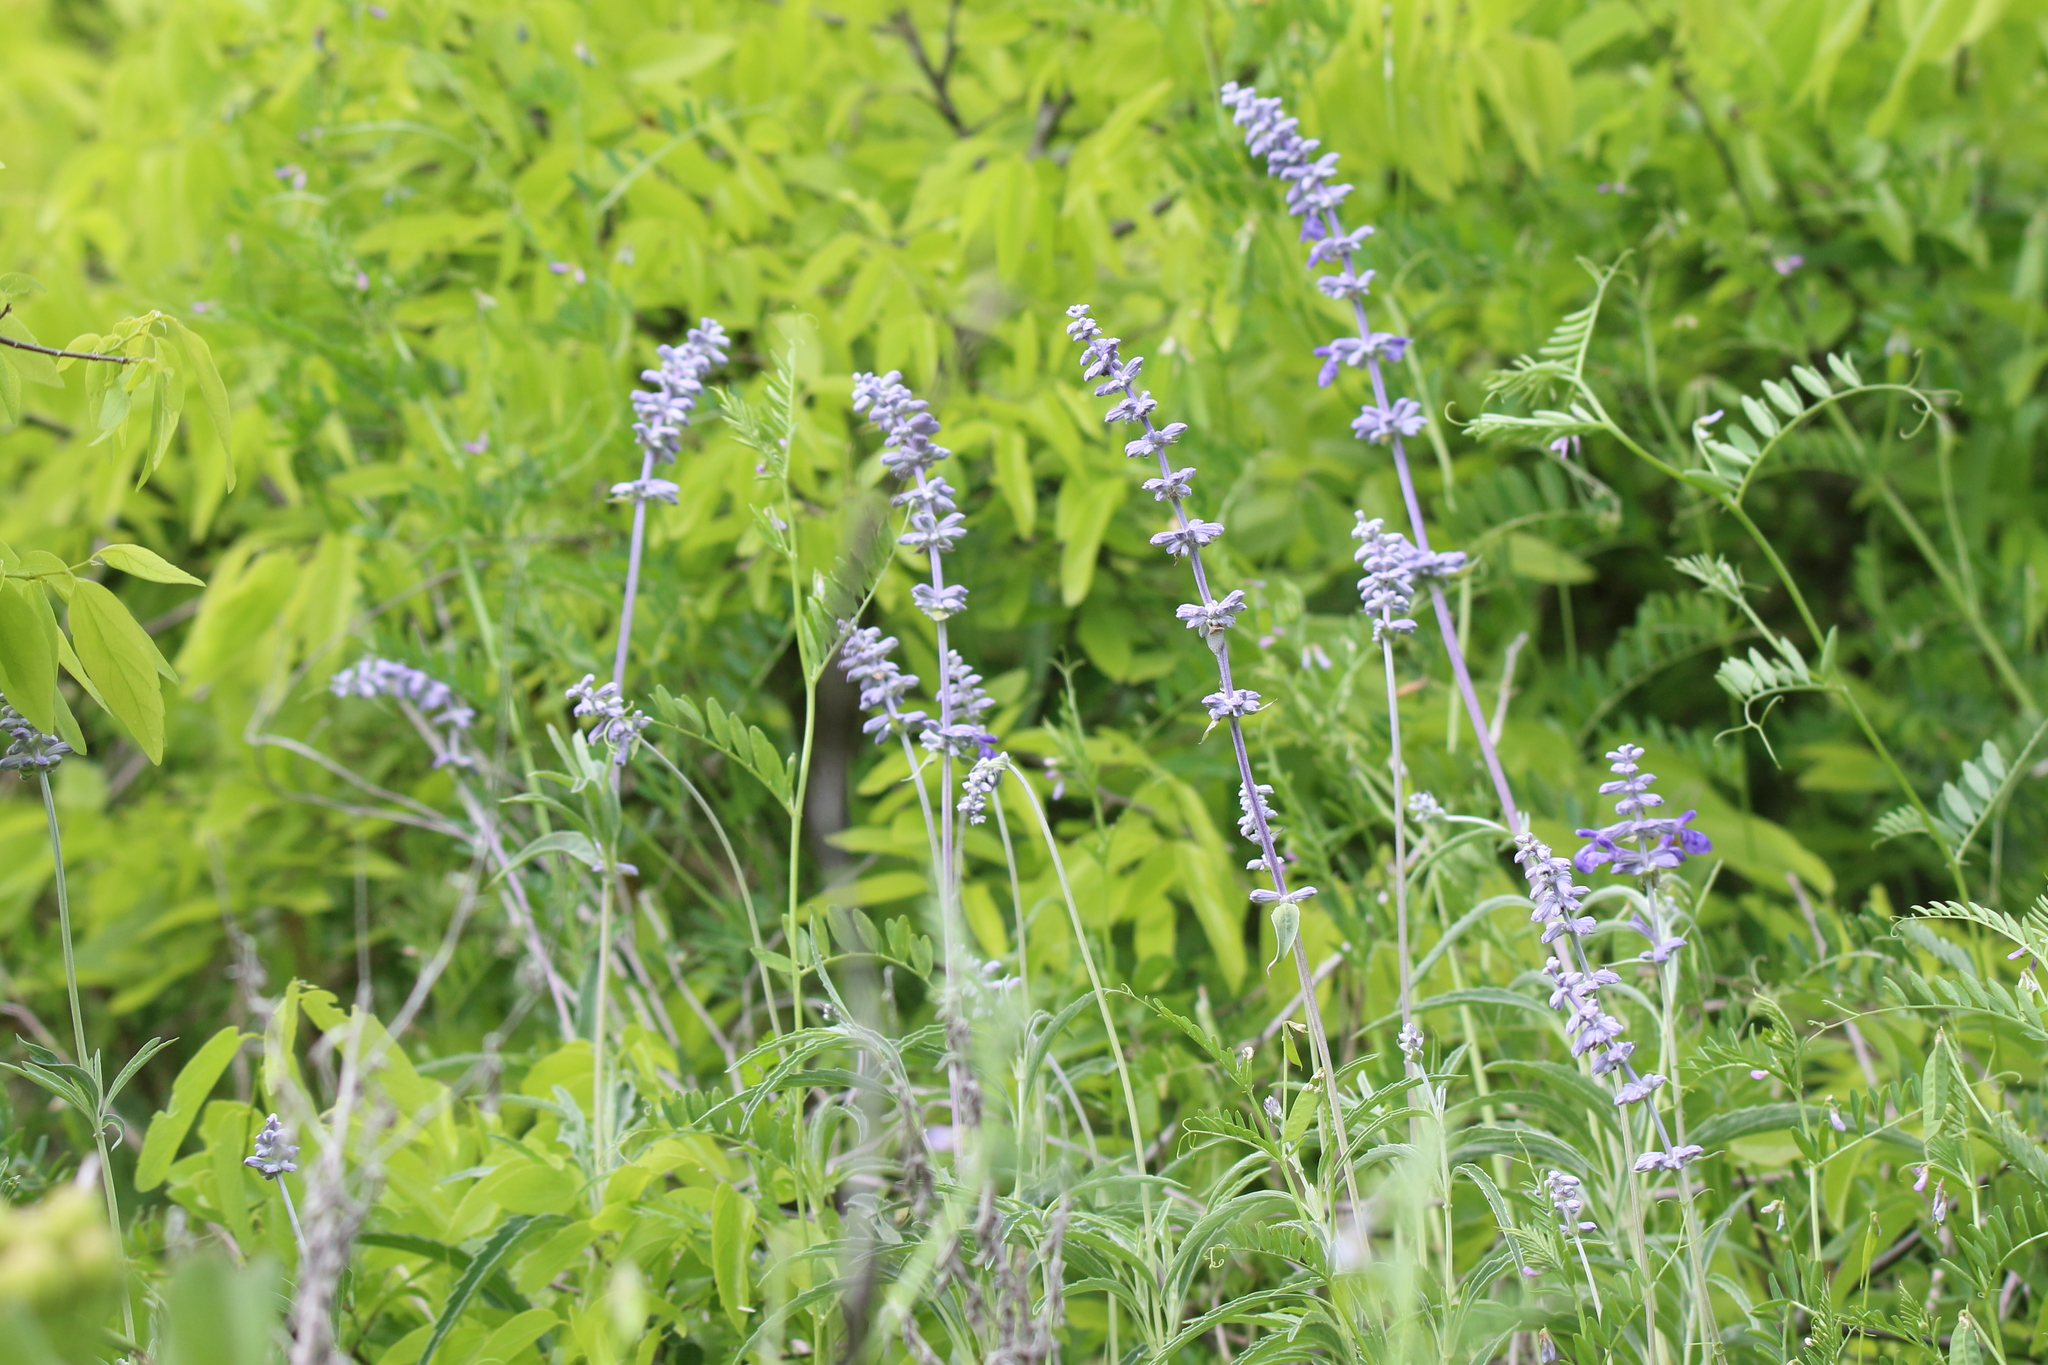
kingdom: Plantae
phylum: Tracheophyta
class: Magnoliopsida
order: Lamiales
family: Lamiaceae
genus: Salvia
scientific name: Salvia farinacea
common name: Mealy sage
